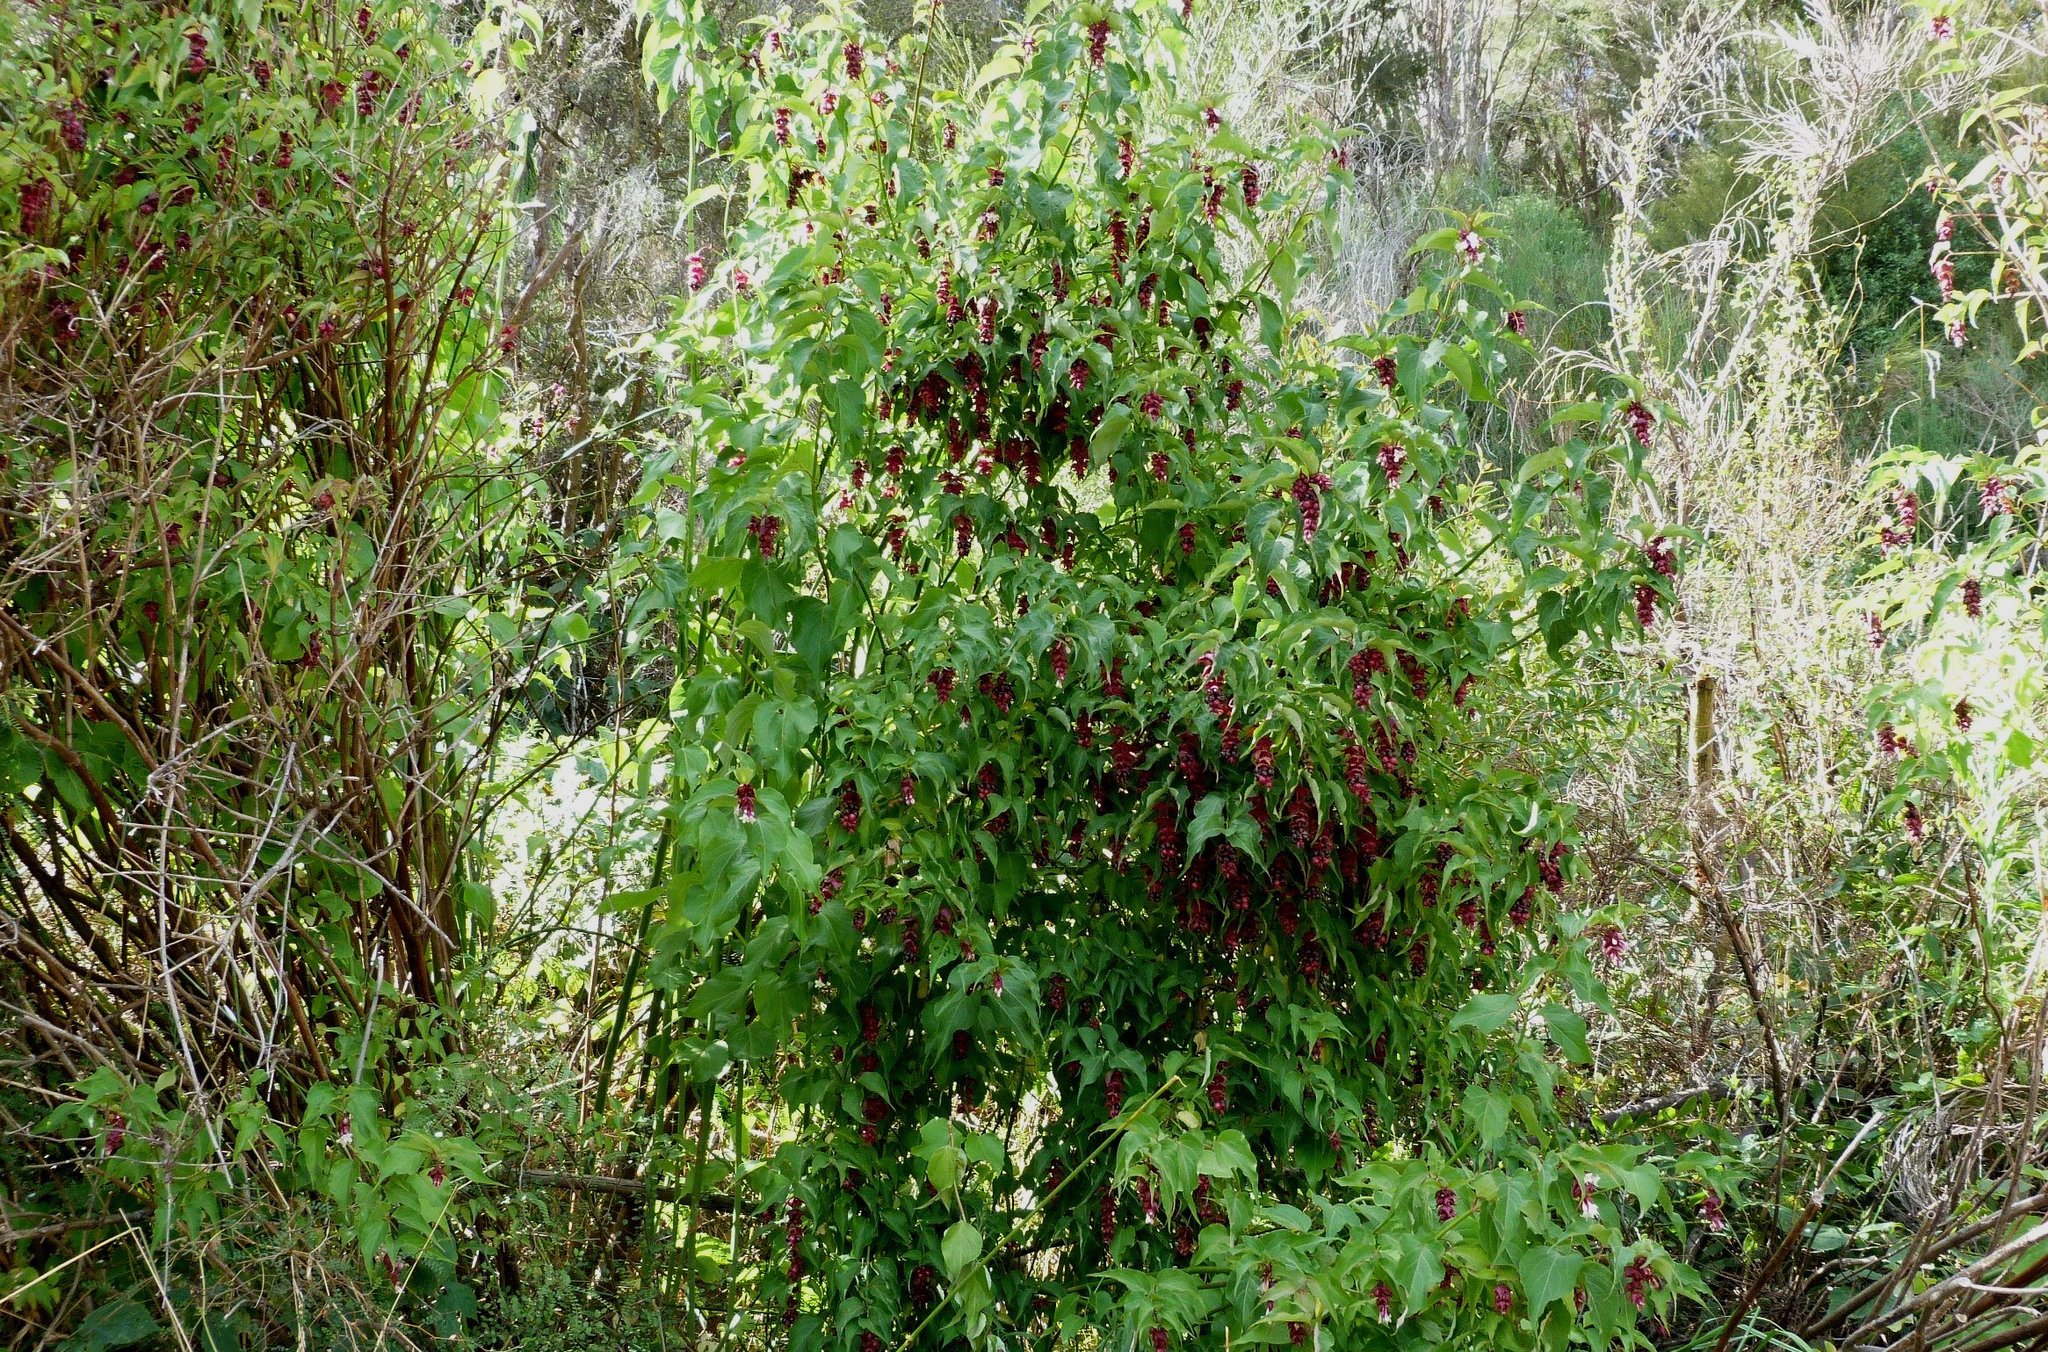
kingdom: Plantae
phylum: Tracheophyta
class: Magnoliopsida
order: Dipsacales
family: Caprifoliaceae
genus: Leycesteria
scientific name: Leycesteria formosa
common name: Himalayan honeysuckle
